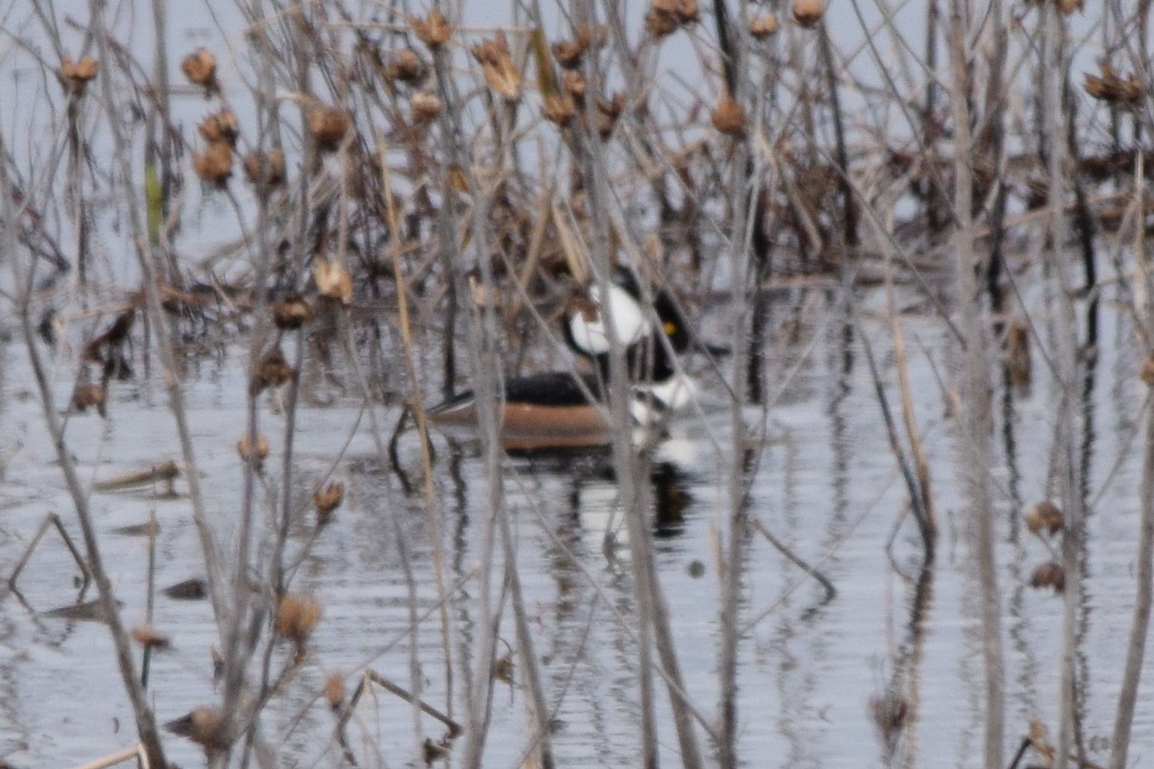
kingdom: Animalia
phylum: Chordata
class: Aves
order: Anseriformes
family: Anatidae
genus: Lophodytes
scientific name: Lophodytes cucullatus
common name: Hooded merganser
